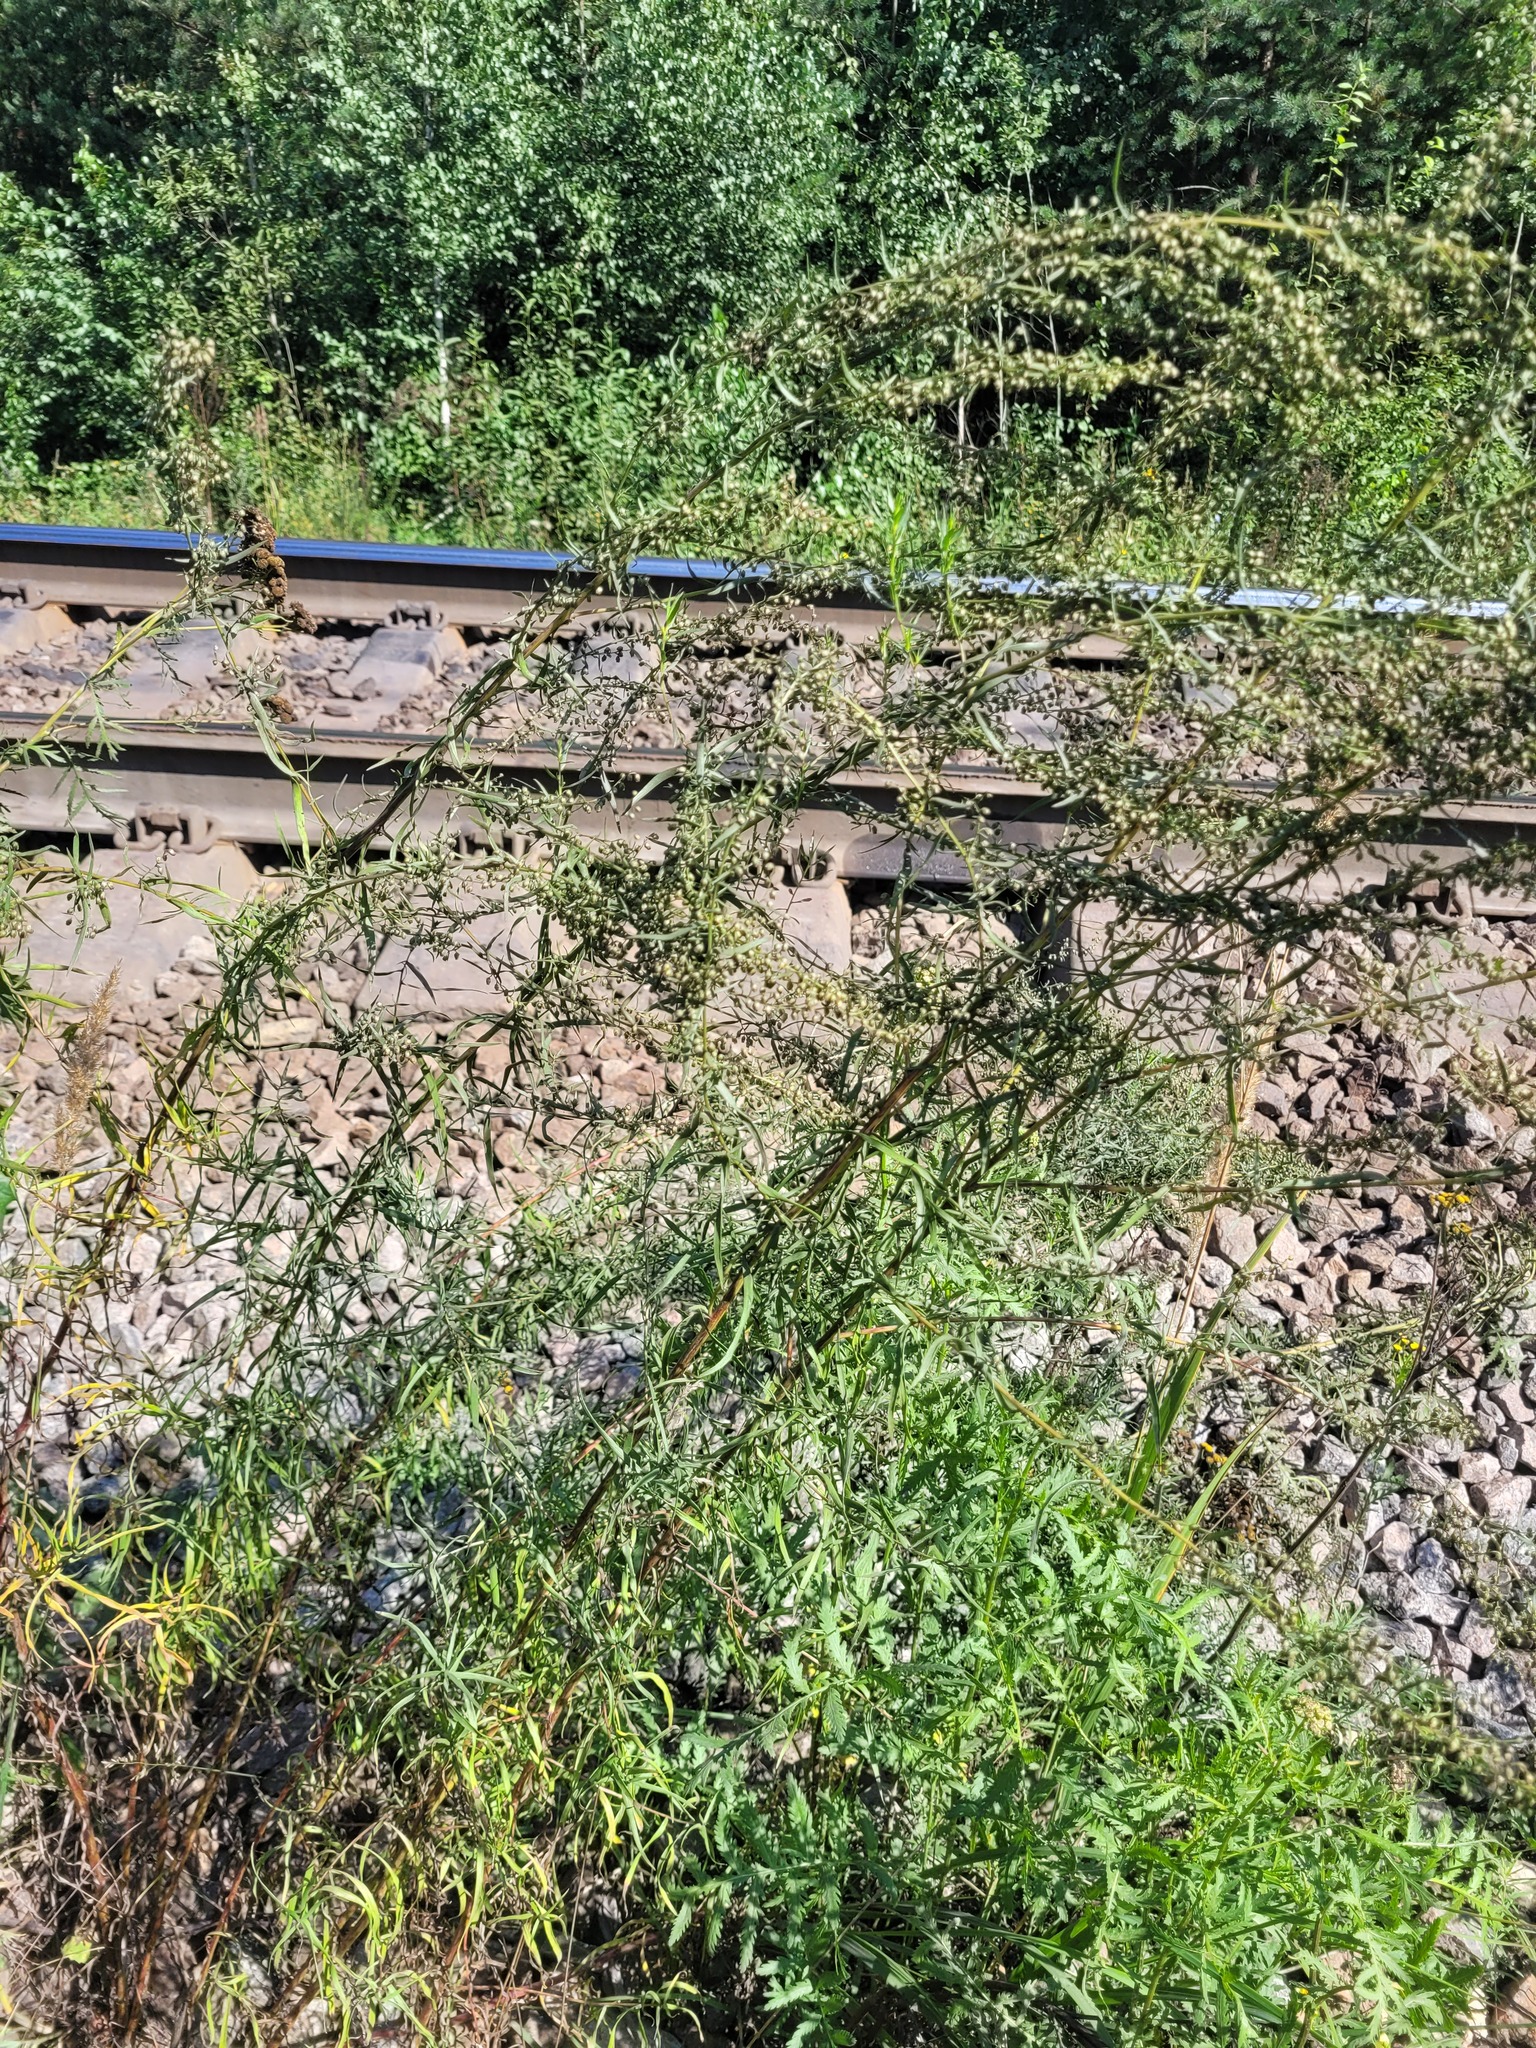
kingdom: Plantae
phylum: Tracheophyta
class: Magnoliopsida
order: Asterales
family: Asteraceae
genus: Artemisia
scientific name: Artemisia dracunculus
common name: Tarragon
